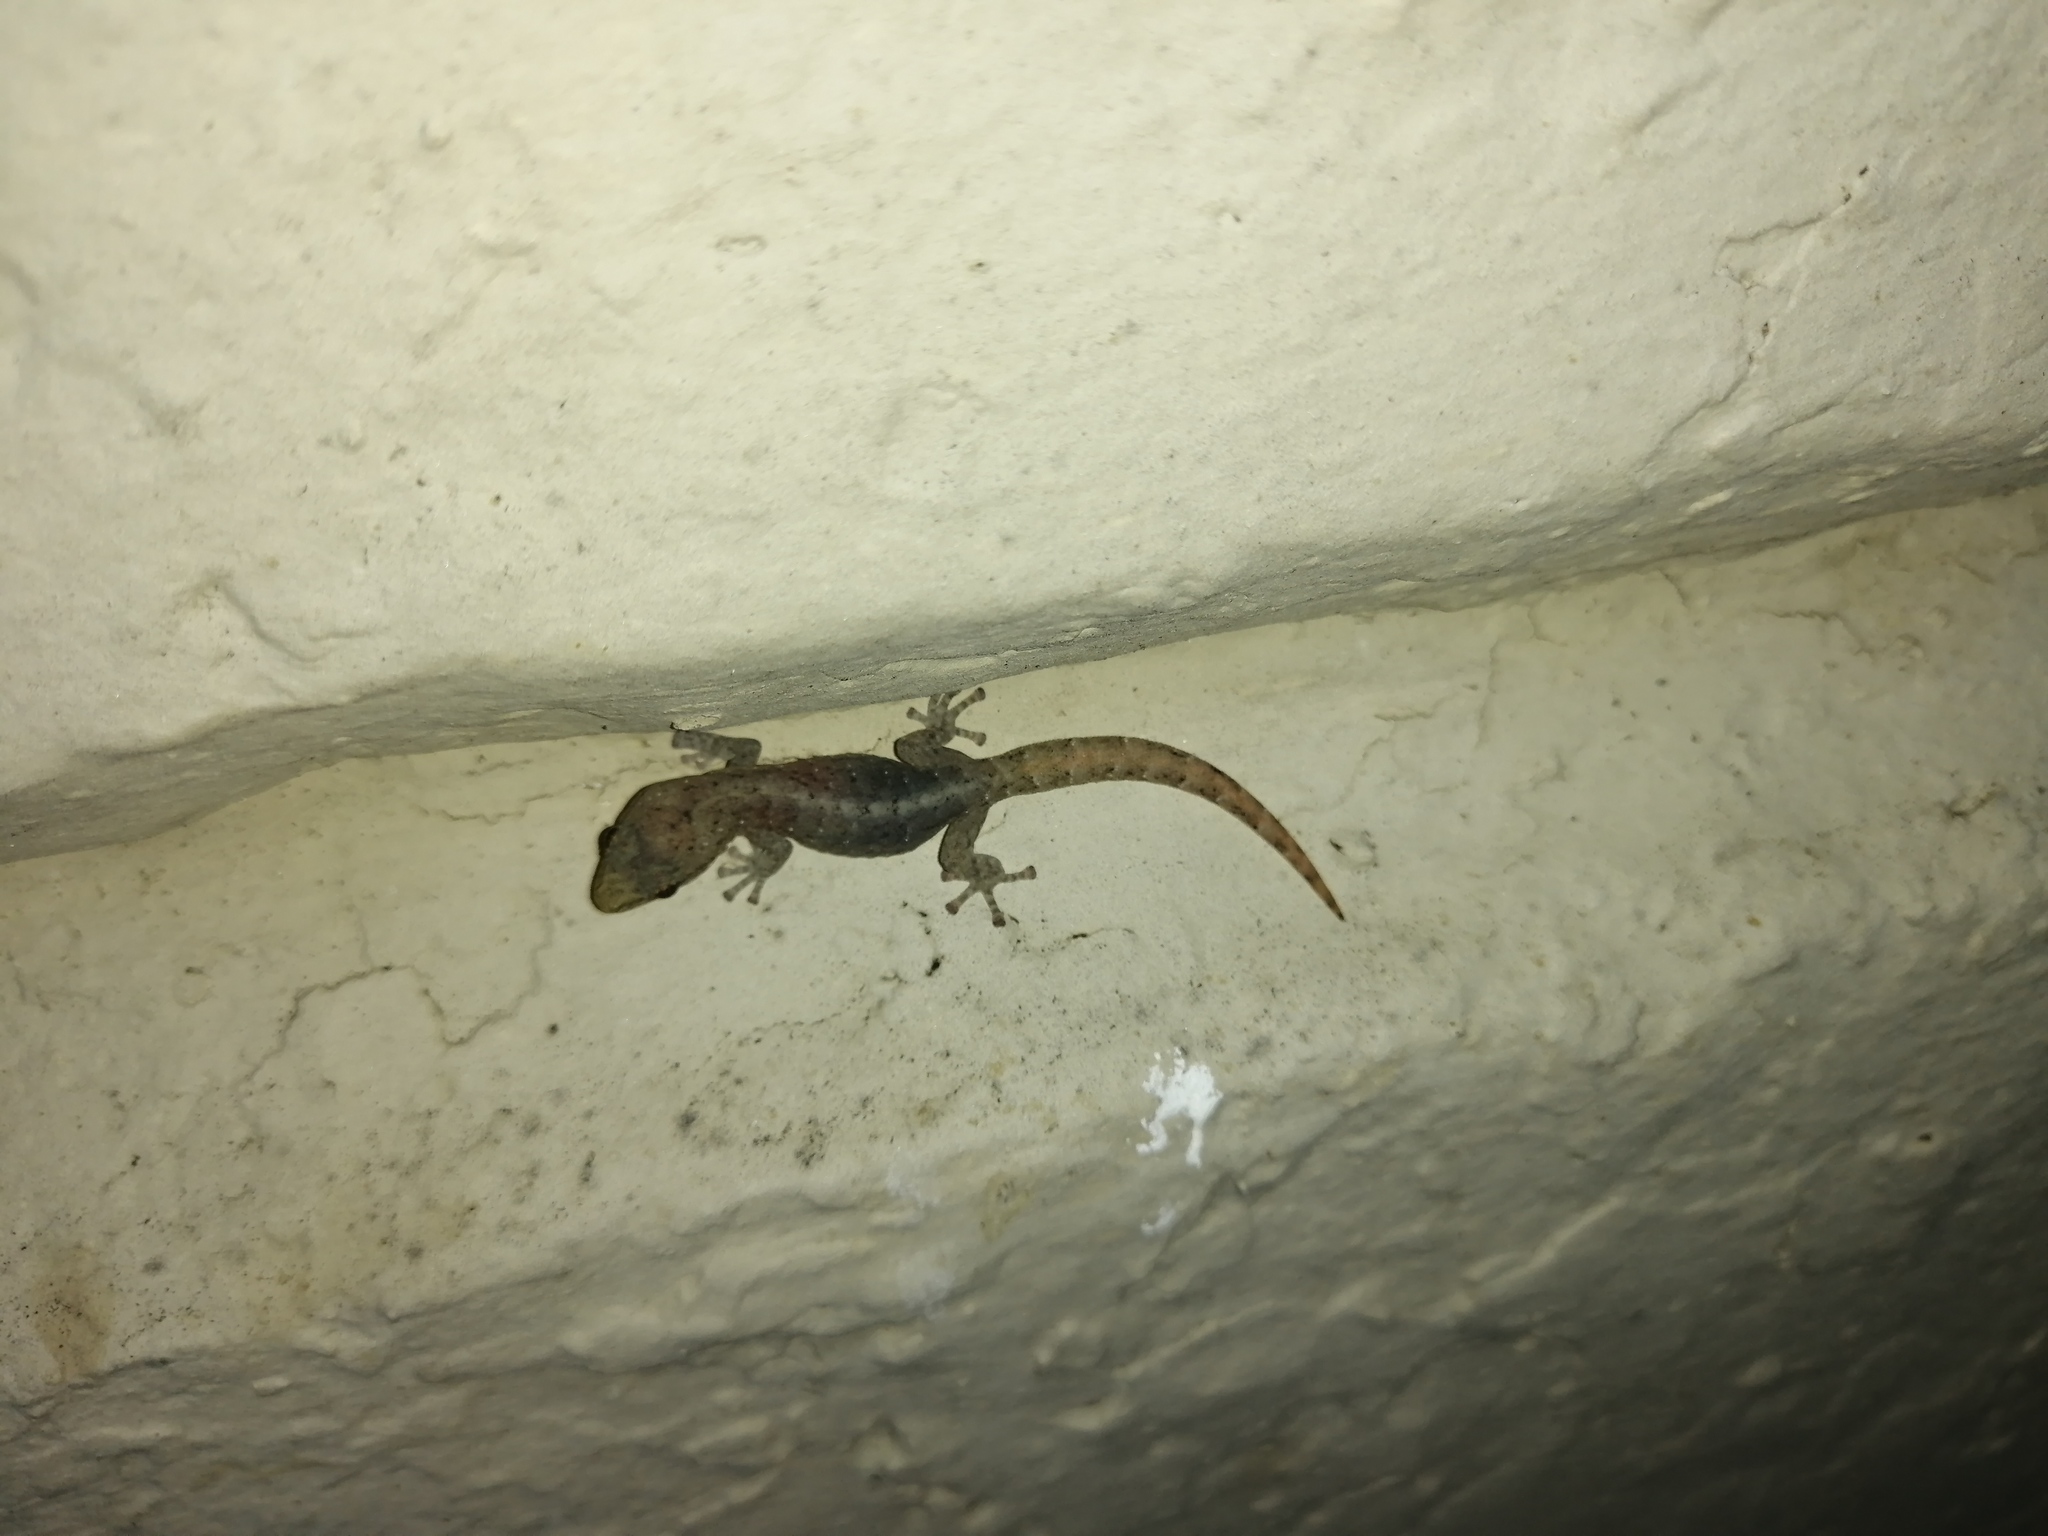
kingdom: Animalia
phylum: Chordata
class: Squamata
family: Gekkonidae
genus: Afrogecko
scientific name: Afrogecko porphyreus
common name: Marbled leaf-toed gecko
